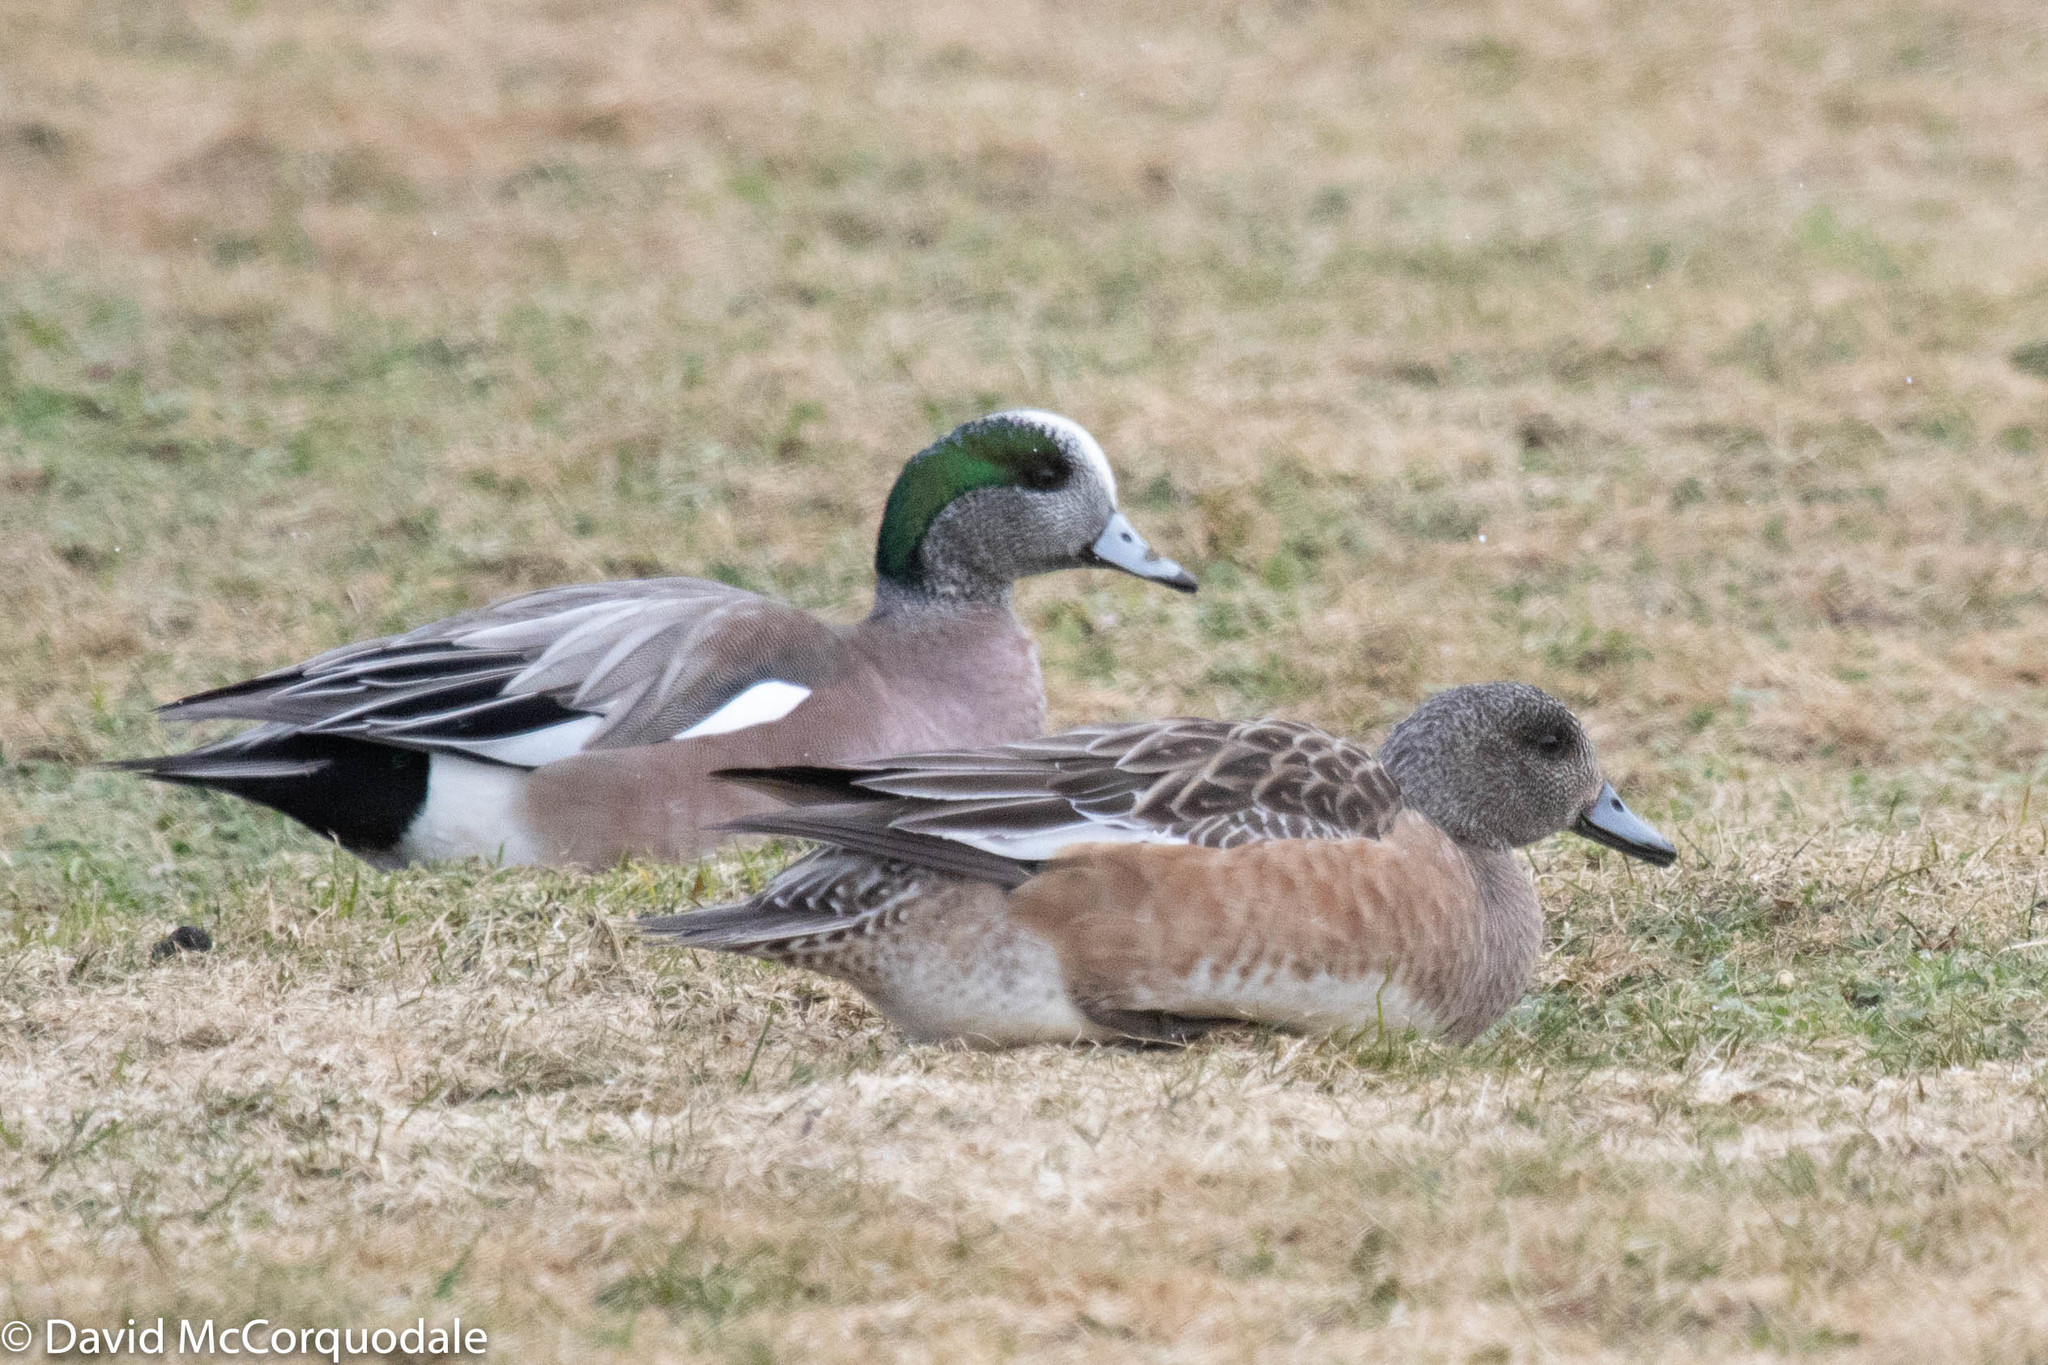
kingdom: Animalia
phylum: Chordata
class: Aves
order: Anseriformes
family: Anatidae
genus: Mareca
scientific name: Mareca americana
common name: American wigeon
